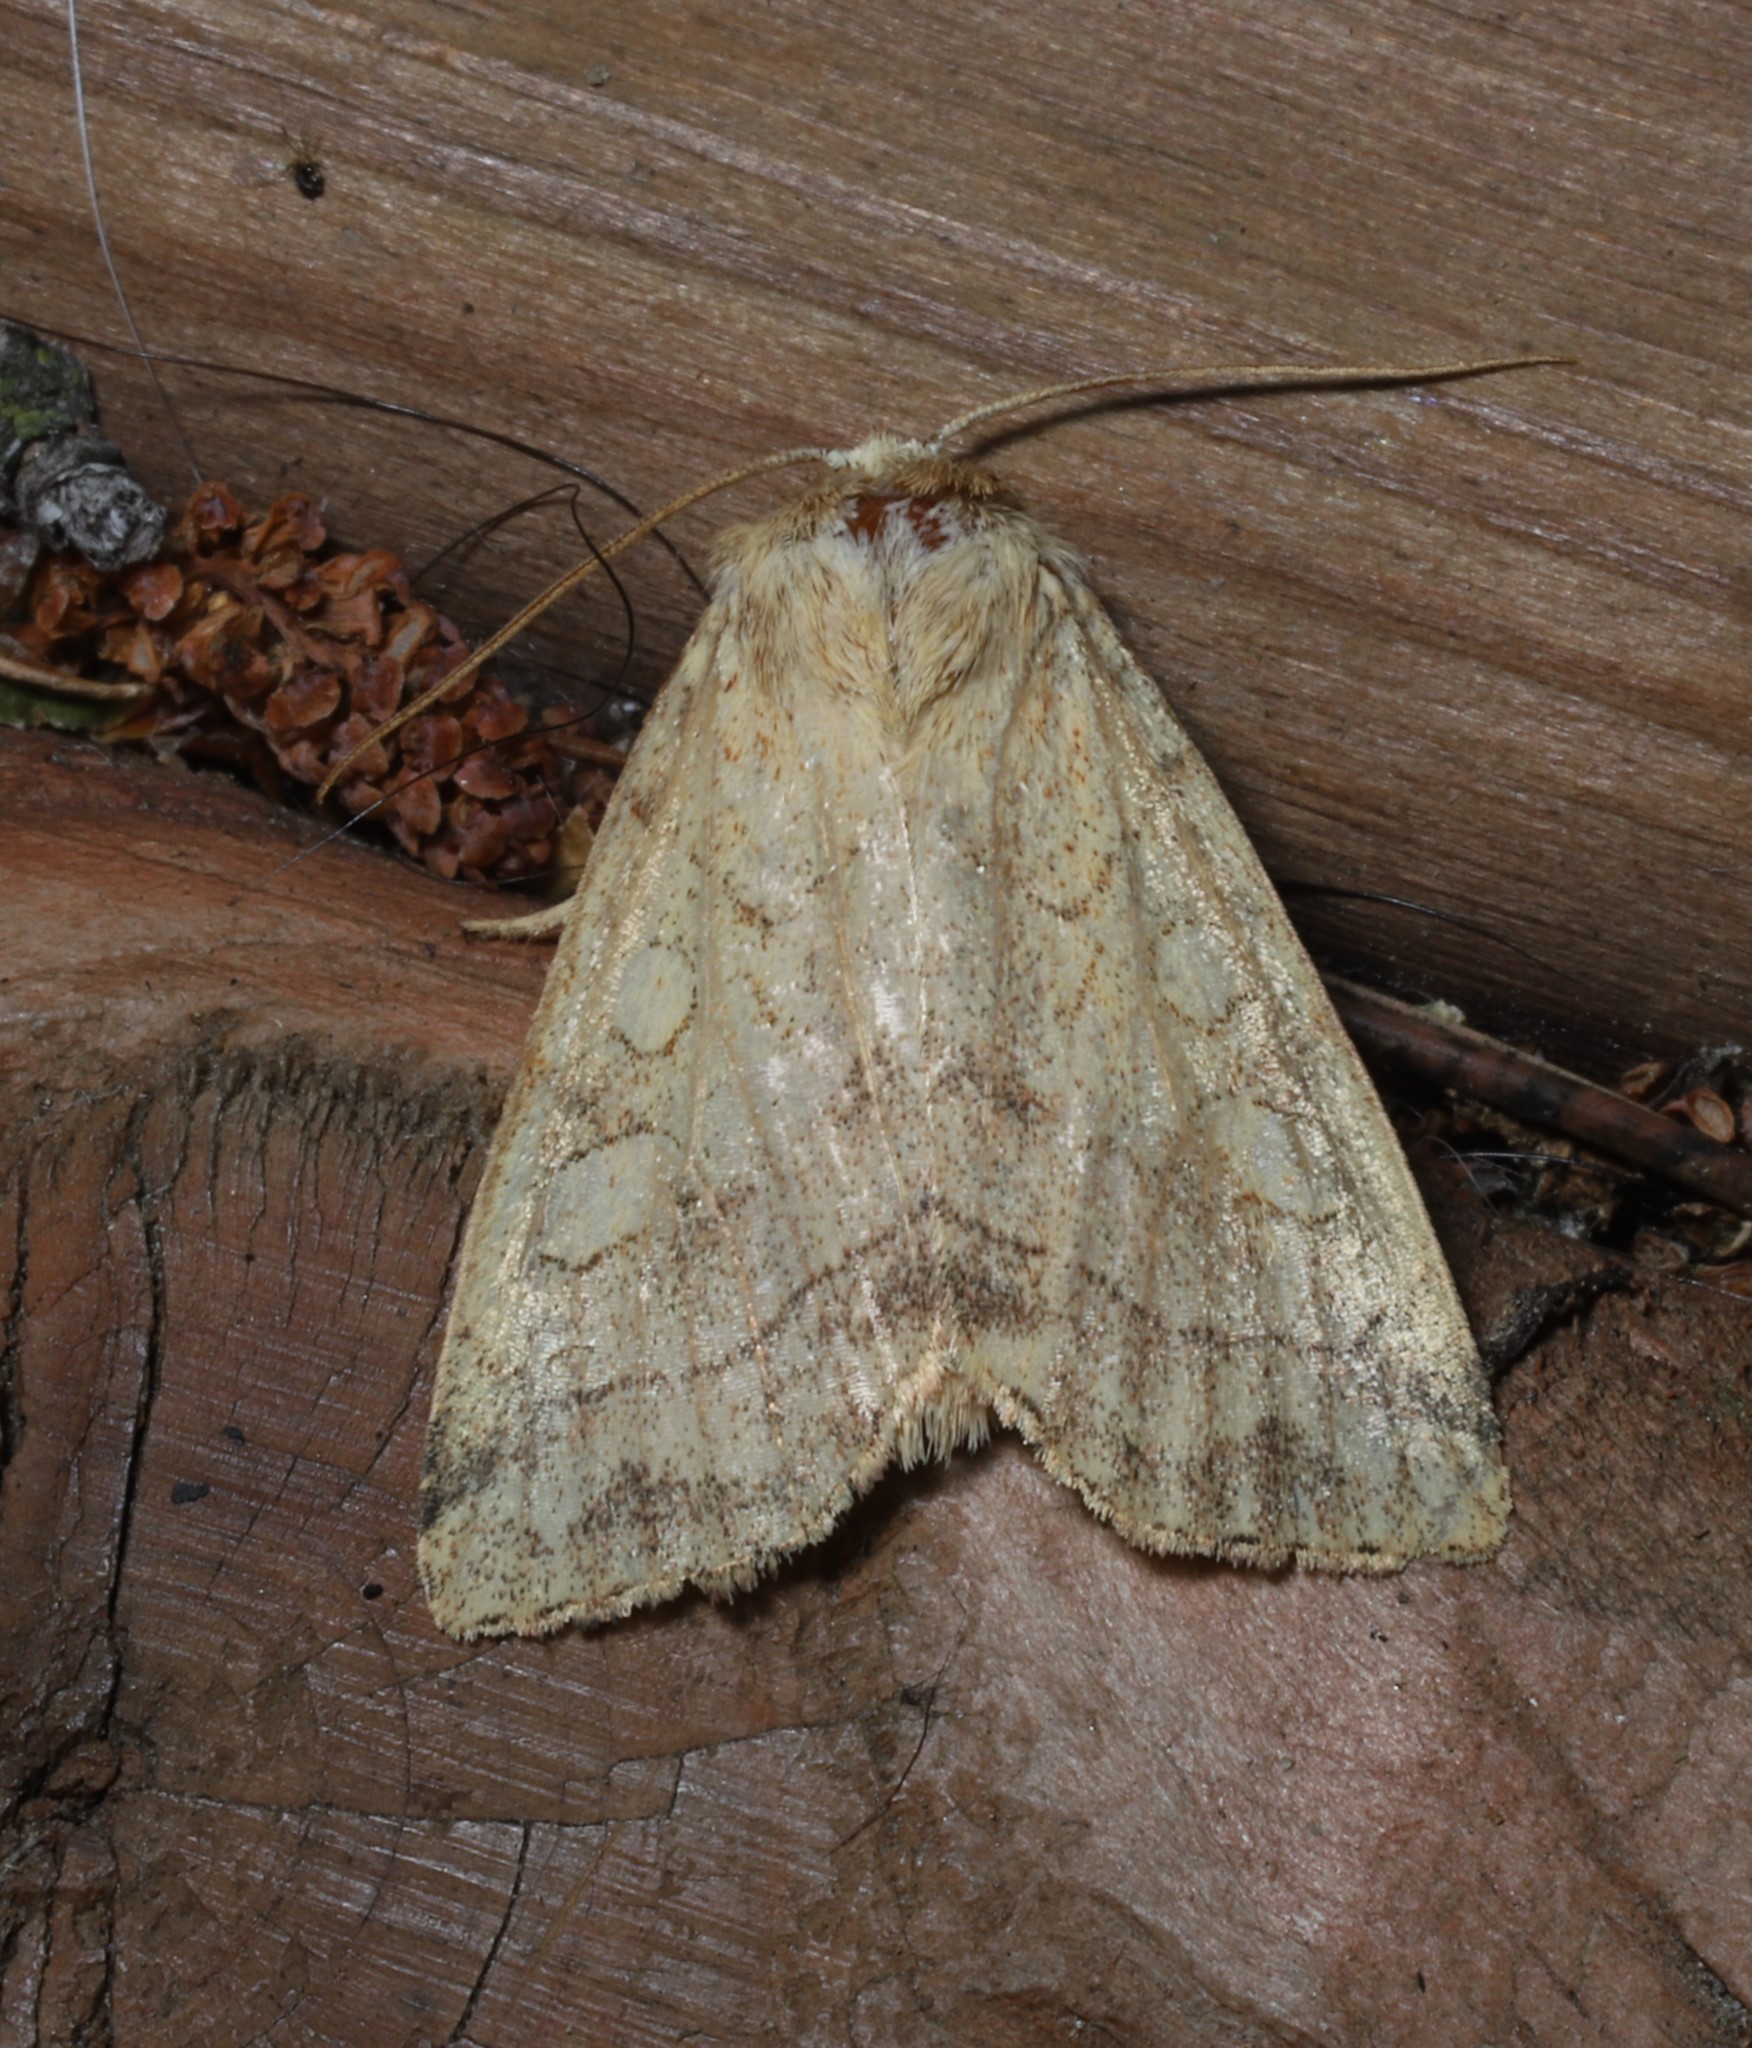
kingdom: Animalia
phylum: Arthropoda
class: Insecta
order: Lepidoptera
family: Noctuidae
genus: Enargia
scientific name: Enargia decolor
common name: Aspen twoleaf tier moth
